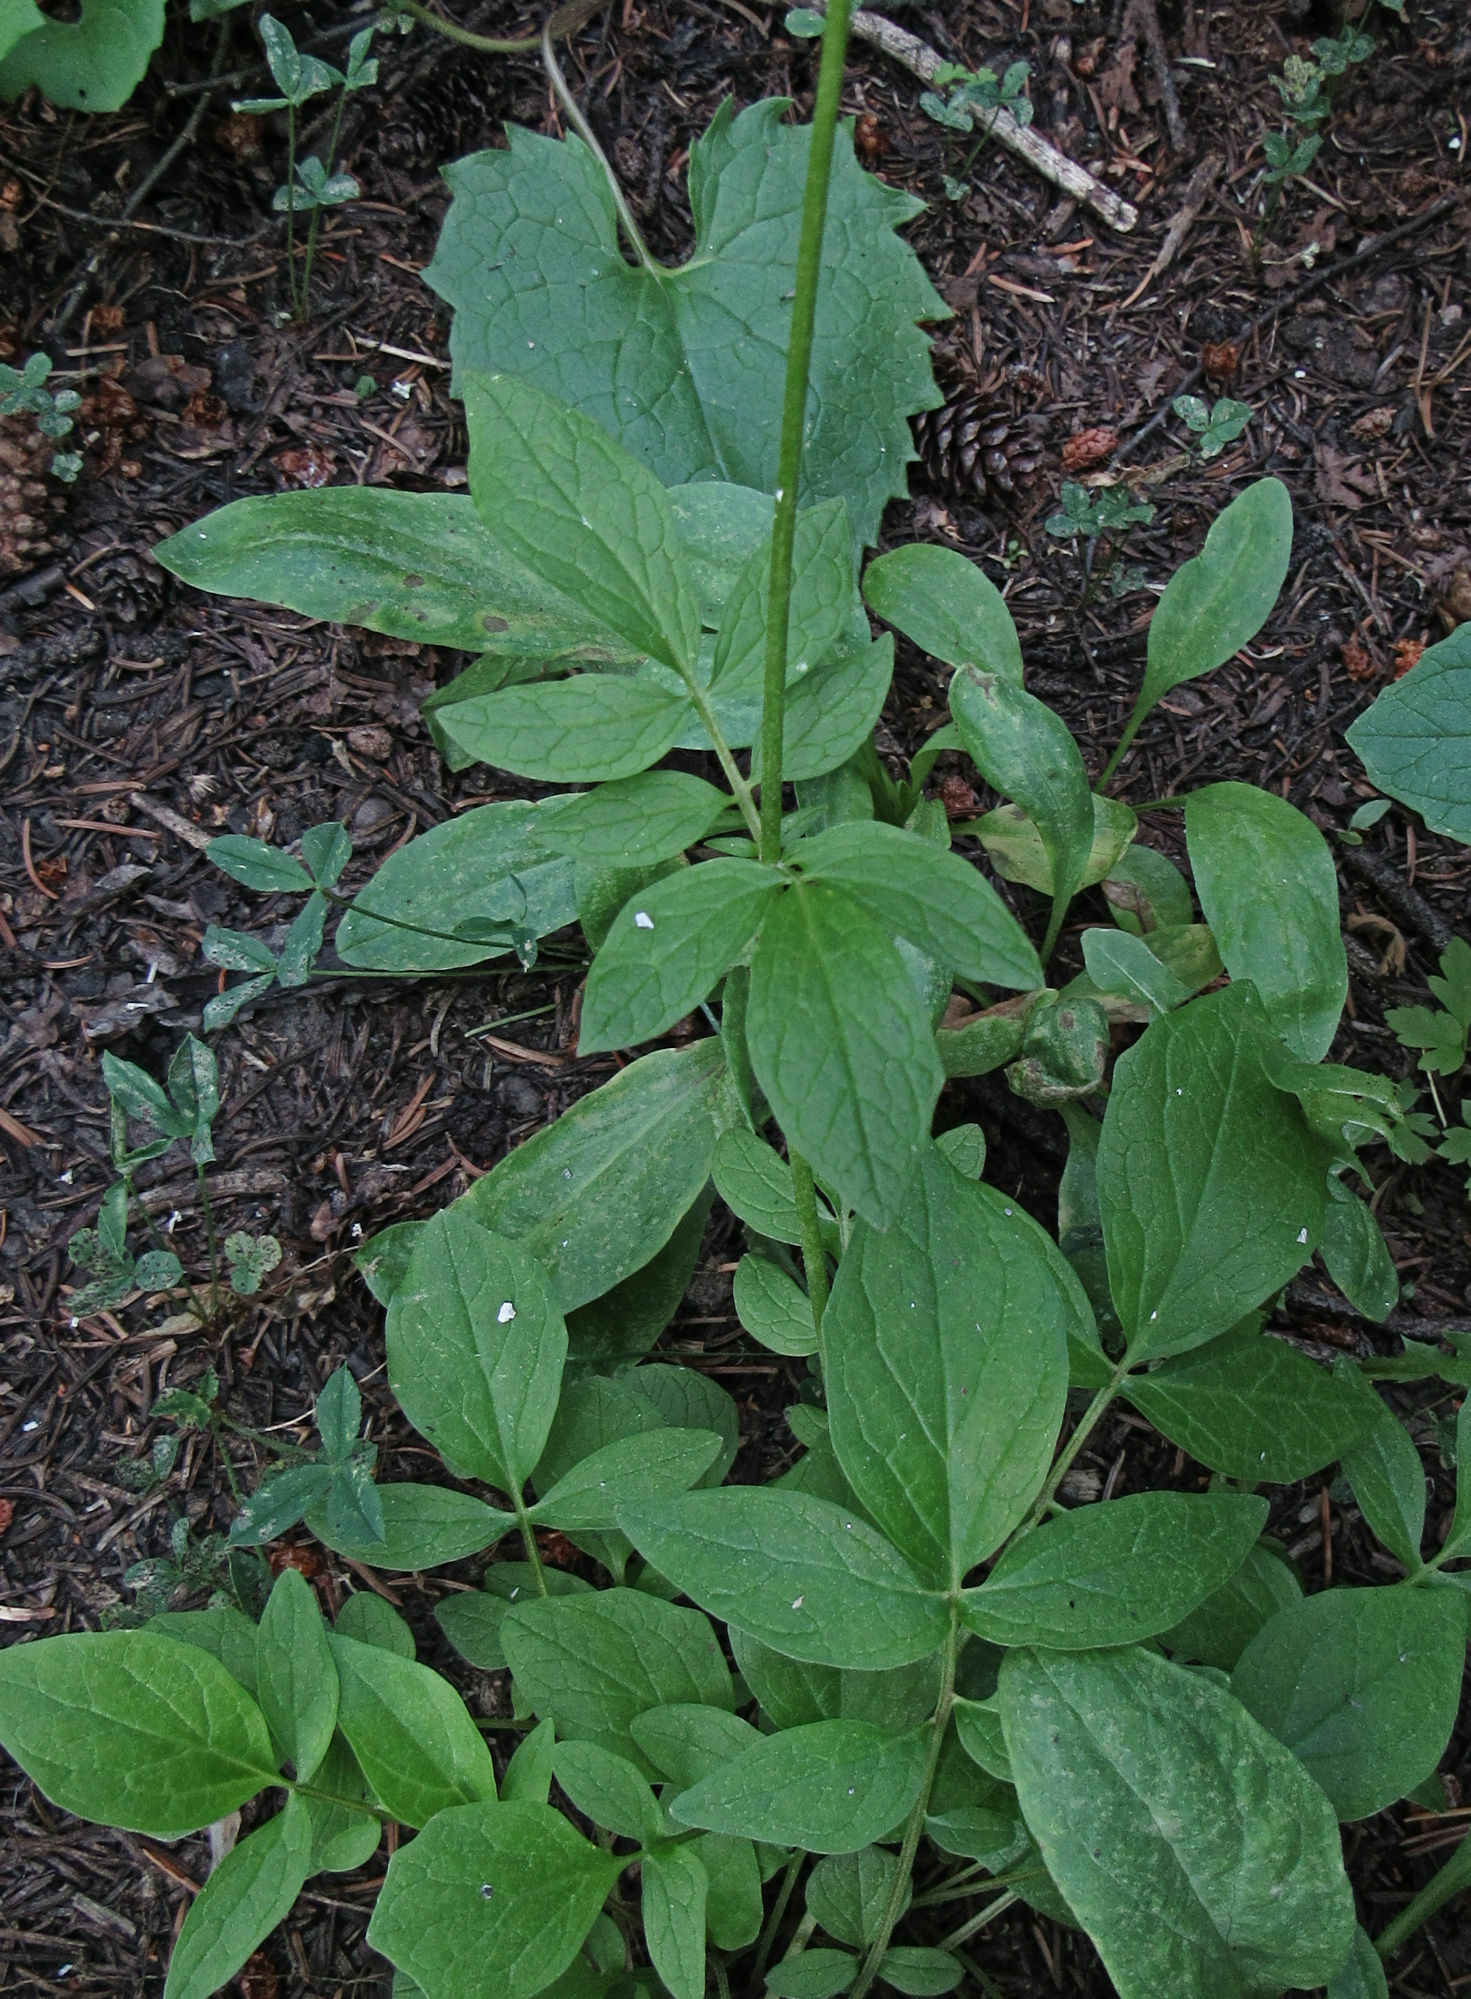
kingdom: Plantae
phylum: Tracheophyta
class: Magnoliopsida
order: Dipsacales
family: Caprifoliaceae
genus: Valeriana
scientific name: Valeriana sitchensis
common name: Pacific valerian
